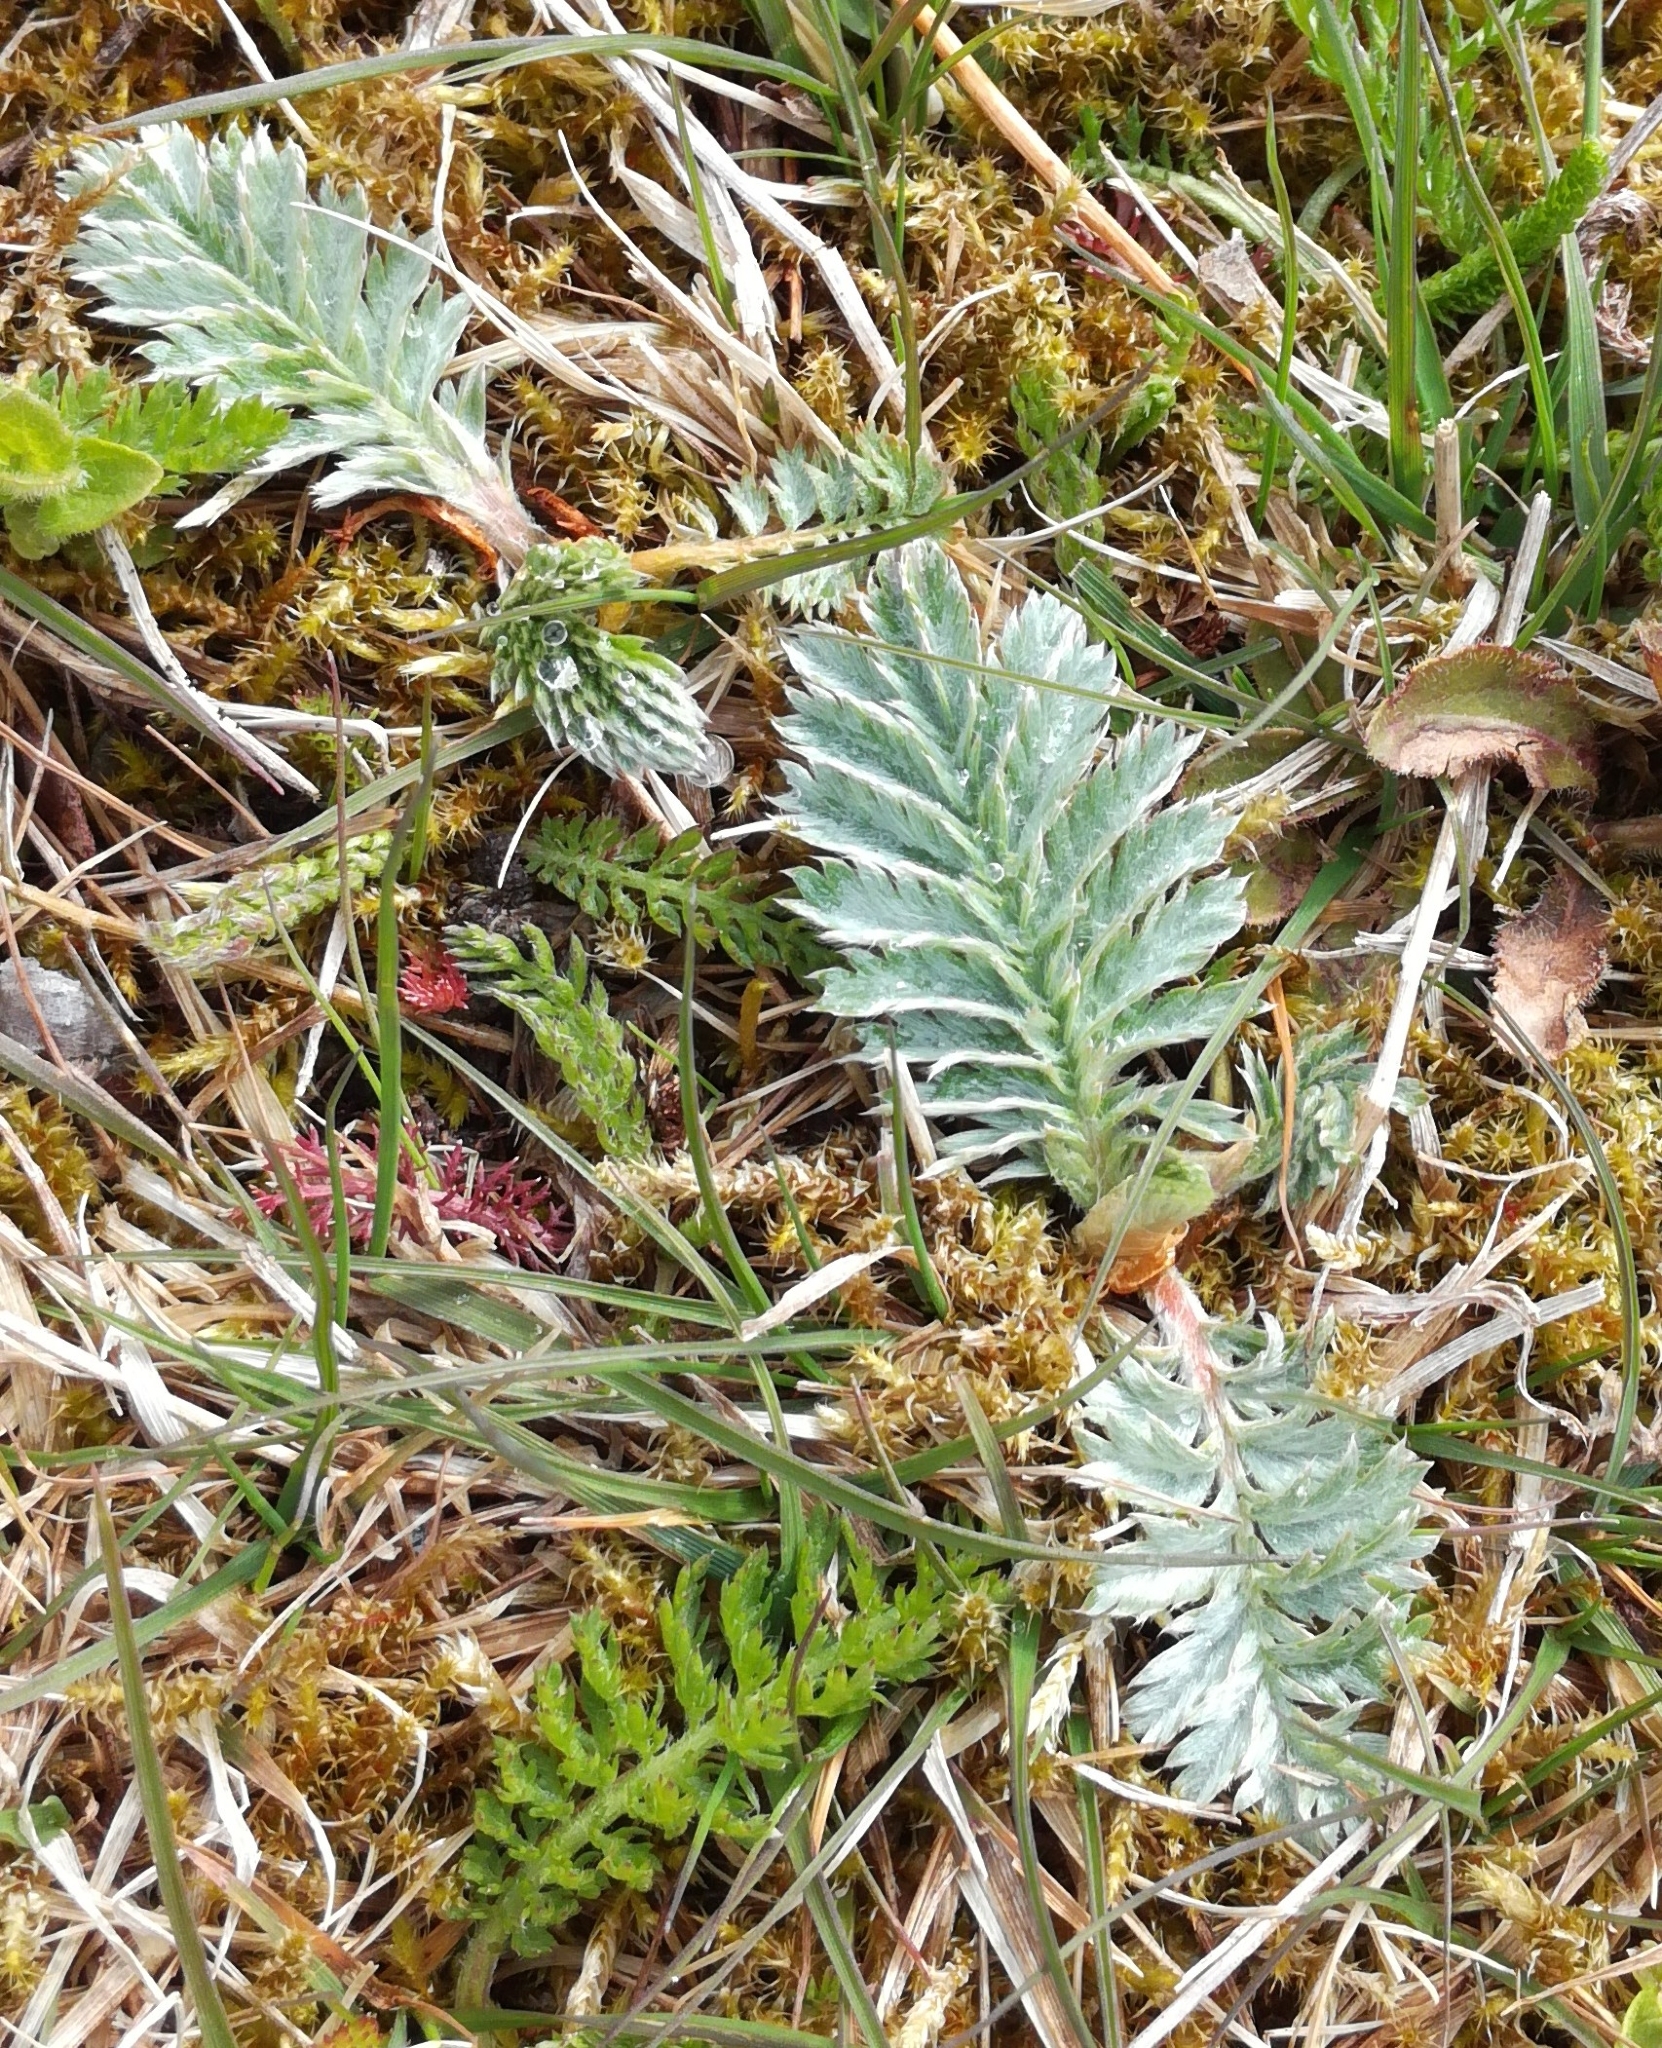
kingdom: Plantae
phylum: Tracheophyta
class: Magnoliopsida
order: Rosales
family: Rosaceae
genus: Argentina
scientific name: Argentina anserina
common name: Common silverweed
